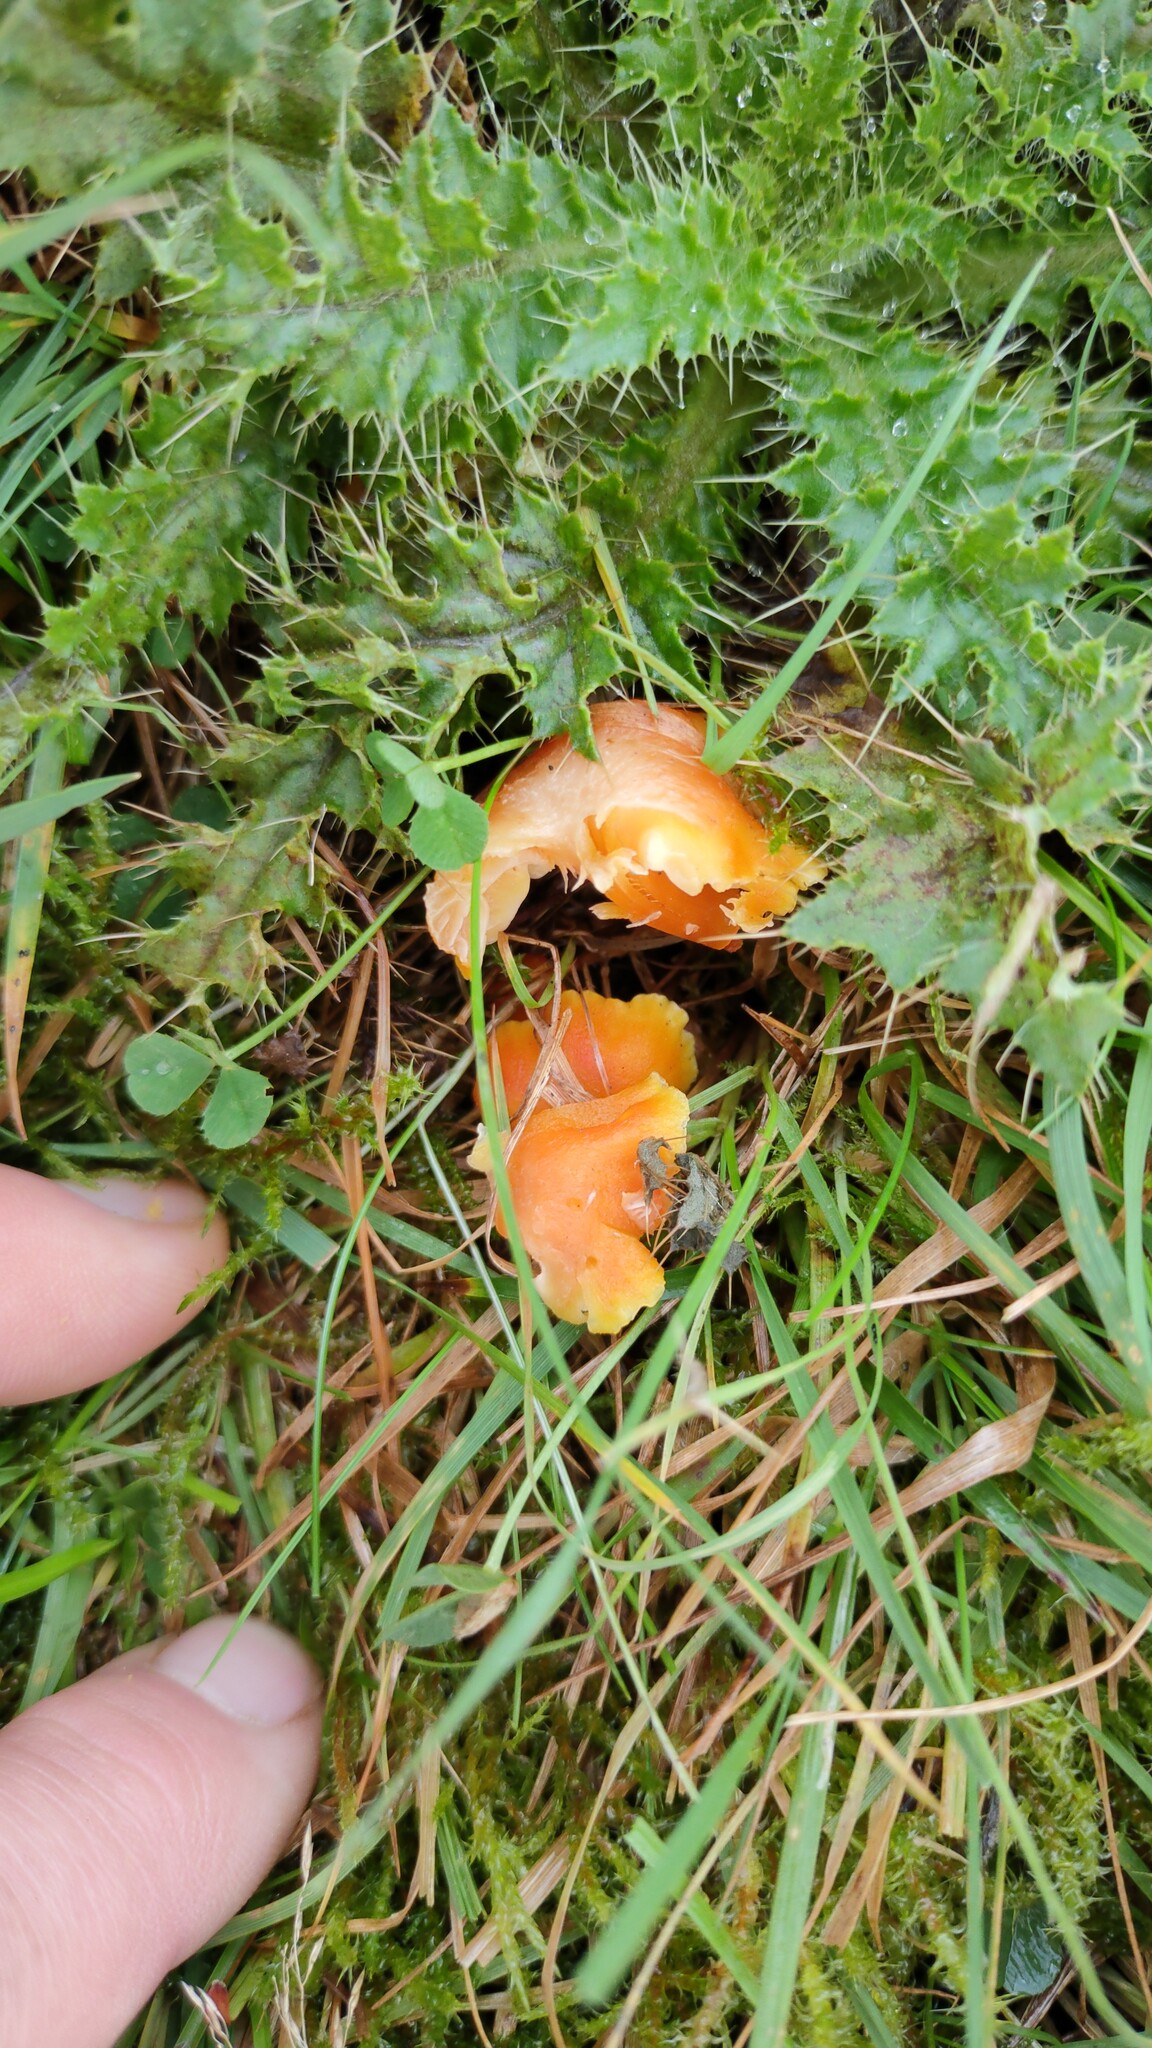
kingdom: Fungi
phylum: Basidiomycota
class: Agaricomycetes
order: Agaricales
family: Hygrophoraceae
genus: Hygrocybe
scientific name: Hygrocybe reidii
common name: Honey waxcap
